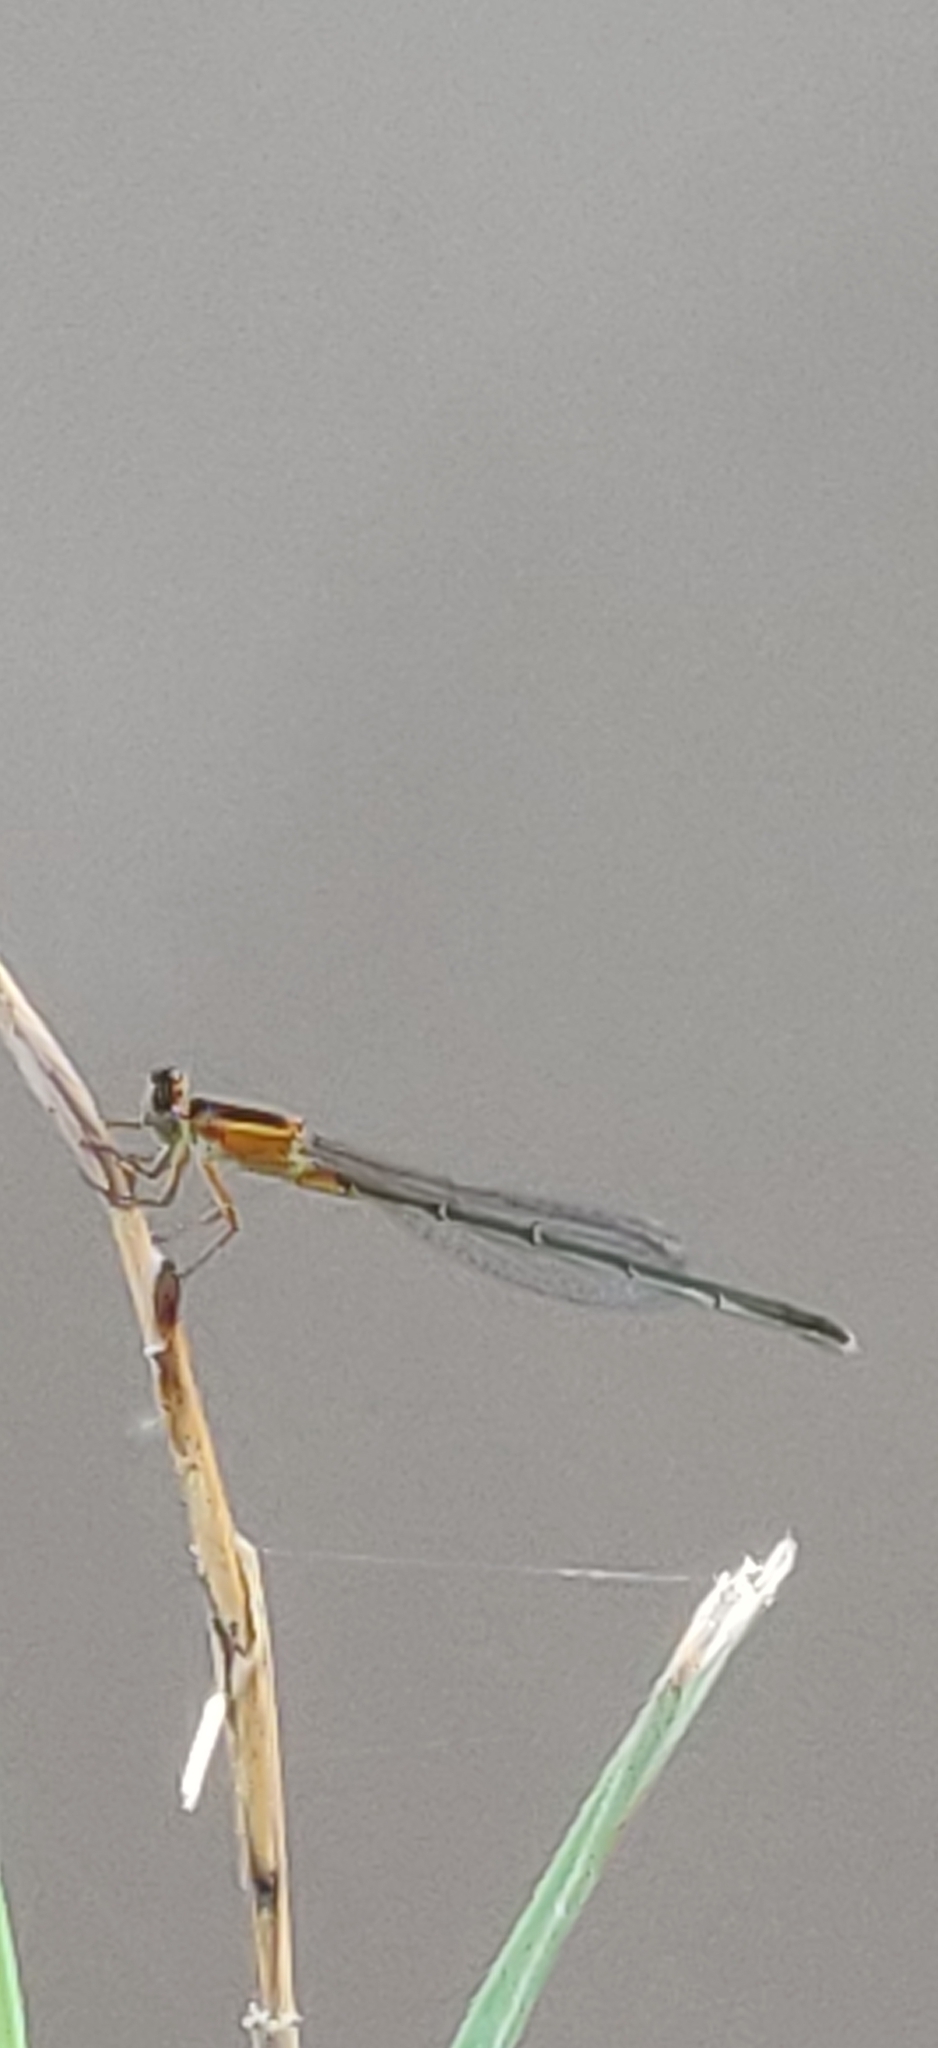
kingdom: Animalia
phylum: Arthropoda
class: Insecta
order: Odonata
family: Coenagrionidae
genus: Ischnura
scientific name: Ischnura ramburii
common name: Rambur's forktail
